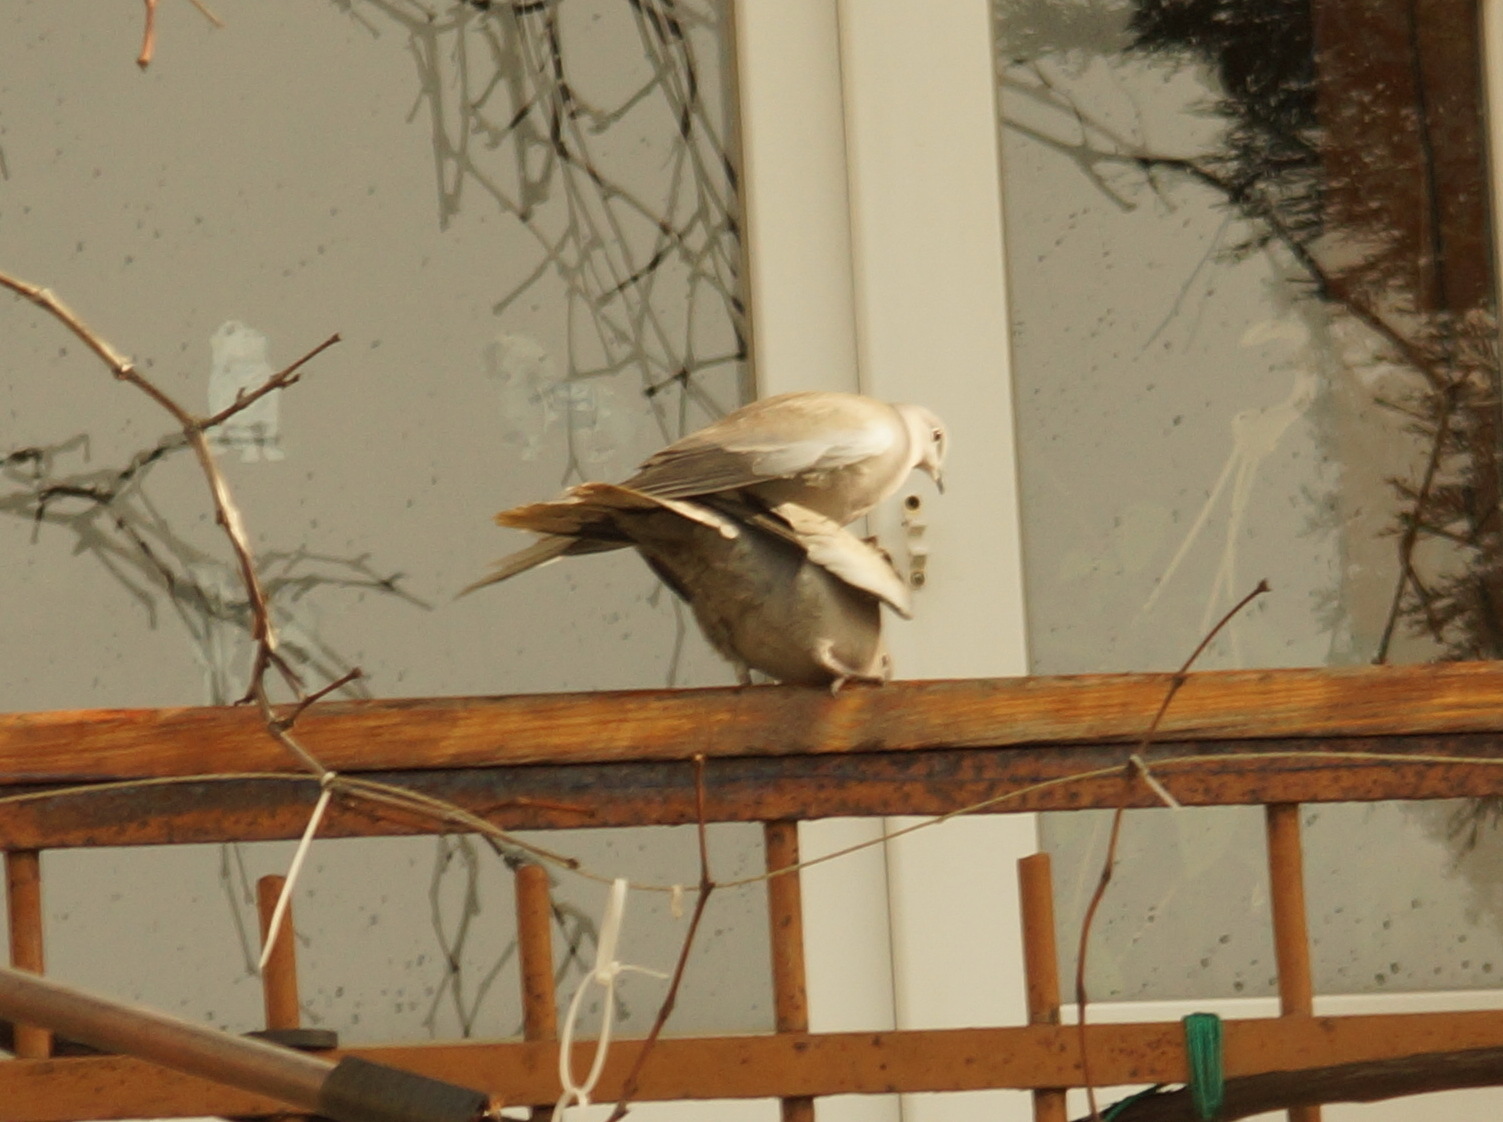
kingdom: Animalia
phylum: Chordata
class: Aves
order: Columbiformes
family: Columbidae
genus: Streptopelia
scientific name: Streptopelia decaocto
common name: Eurasian collared dove
